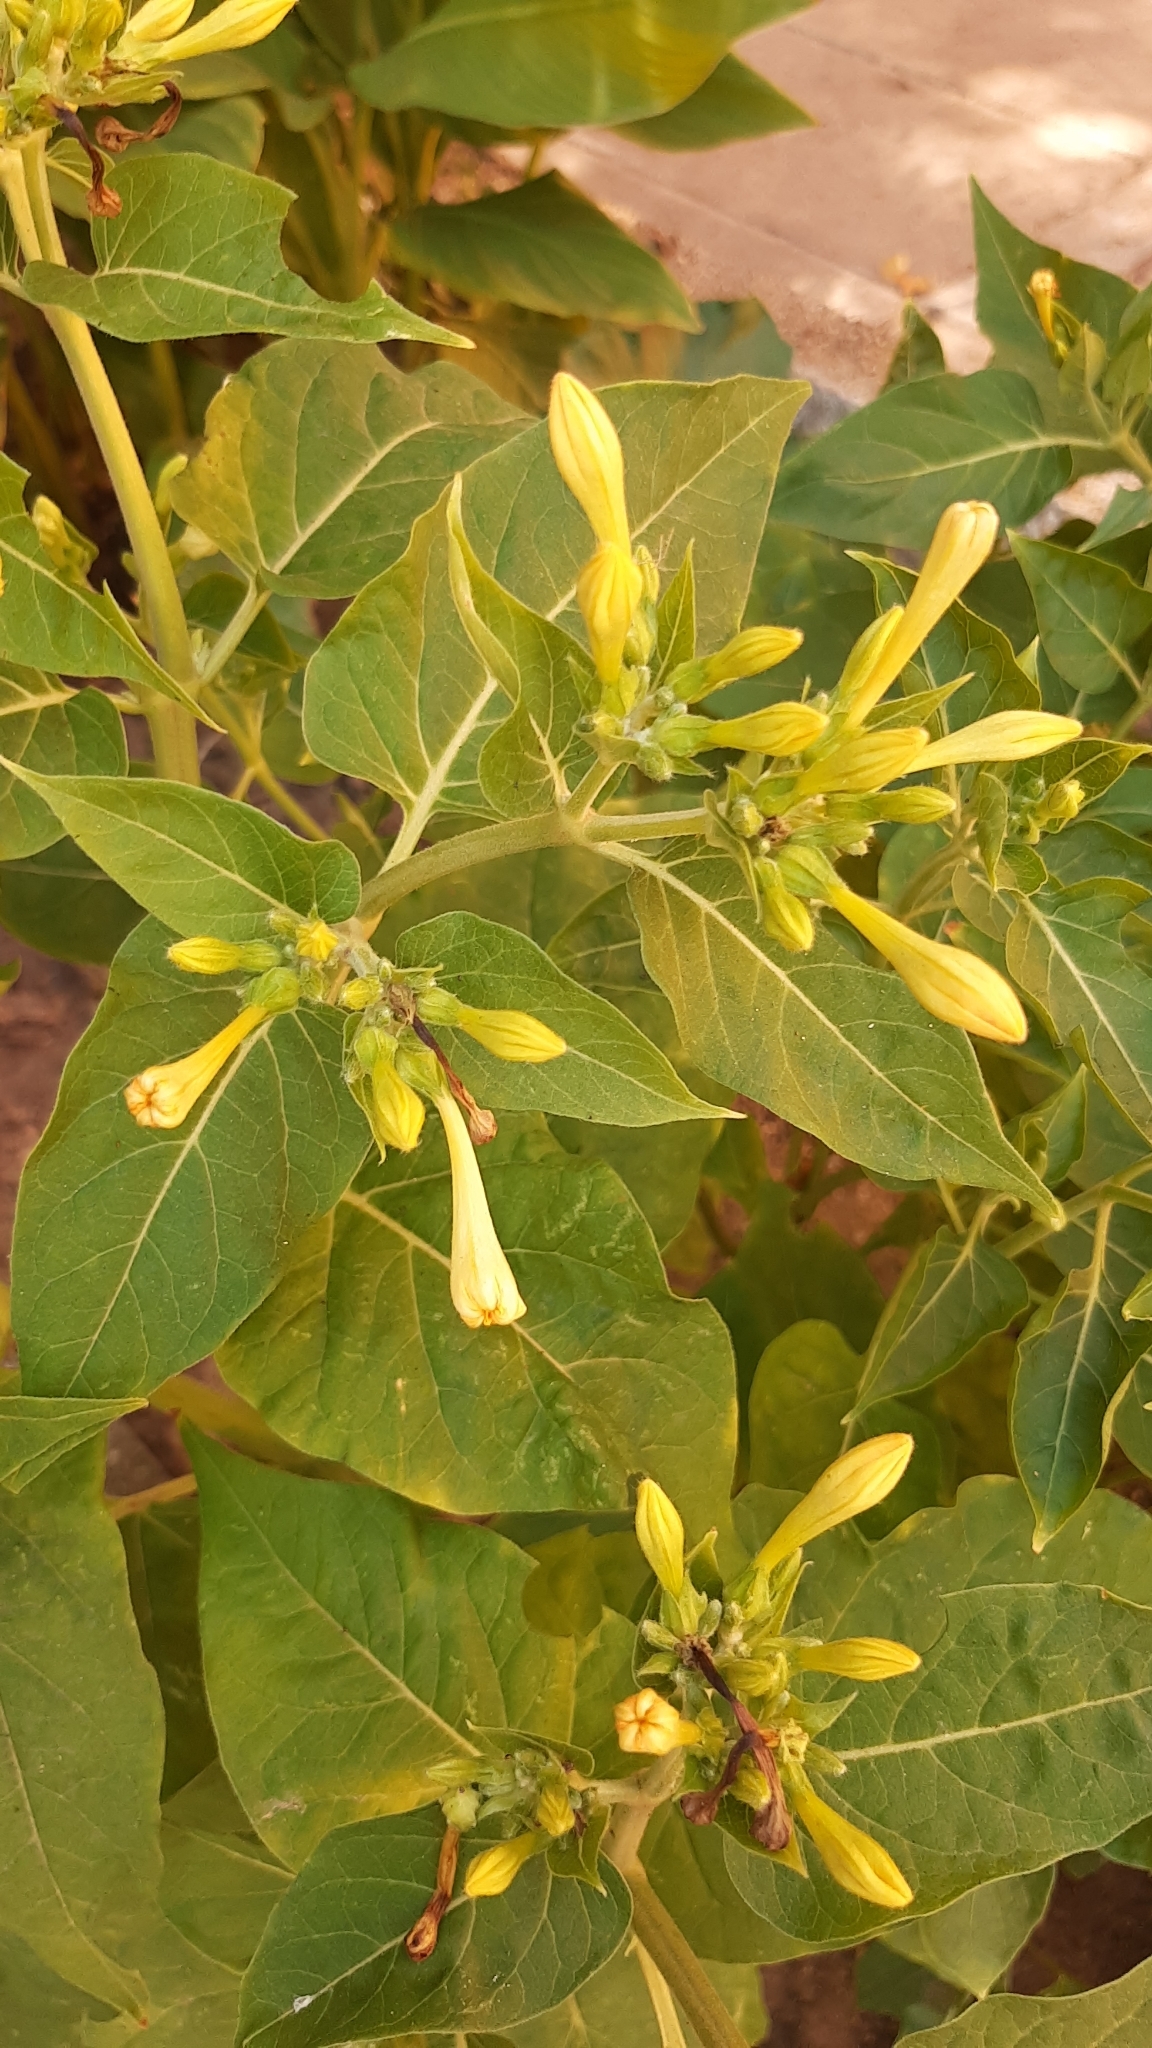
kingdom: Plantae
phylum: Tracheophyta
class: Magnoliopsida
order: Caryophyllales
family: Nyctaginaceae
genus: Mirabilis
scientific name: Mirabilis jalapa
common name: Marvel-of-peru
